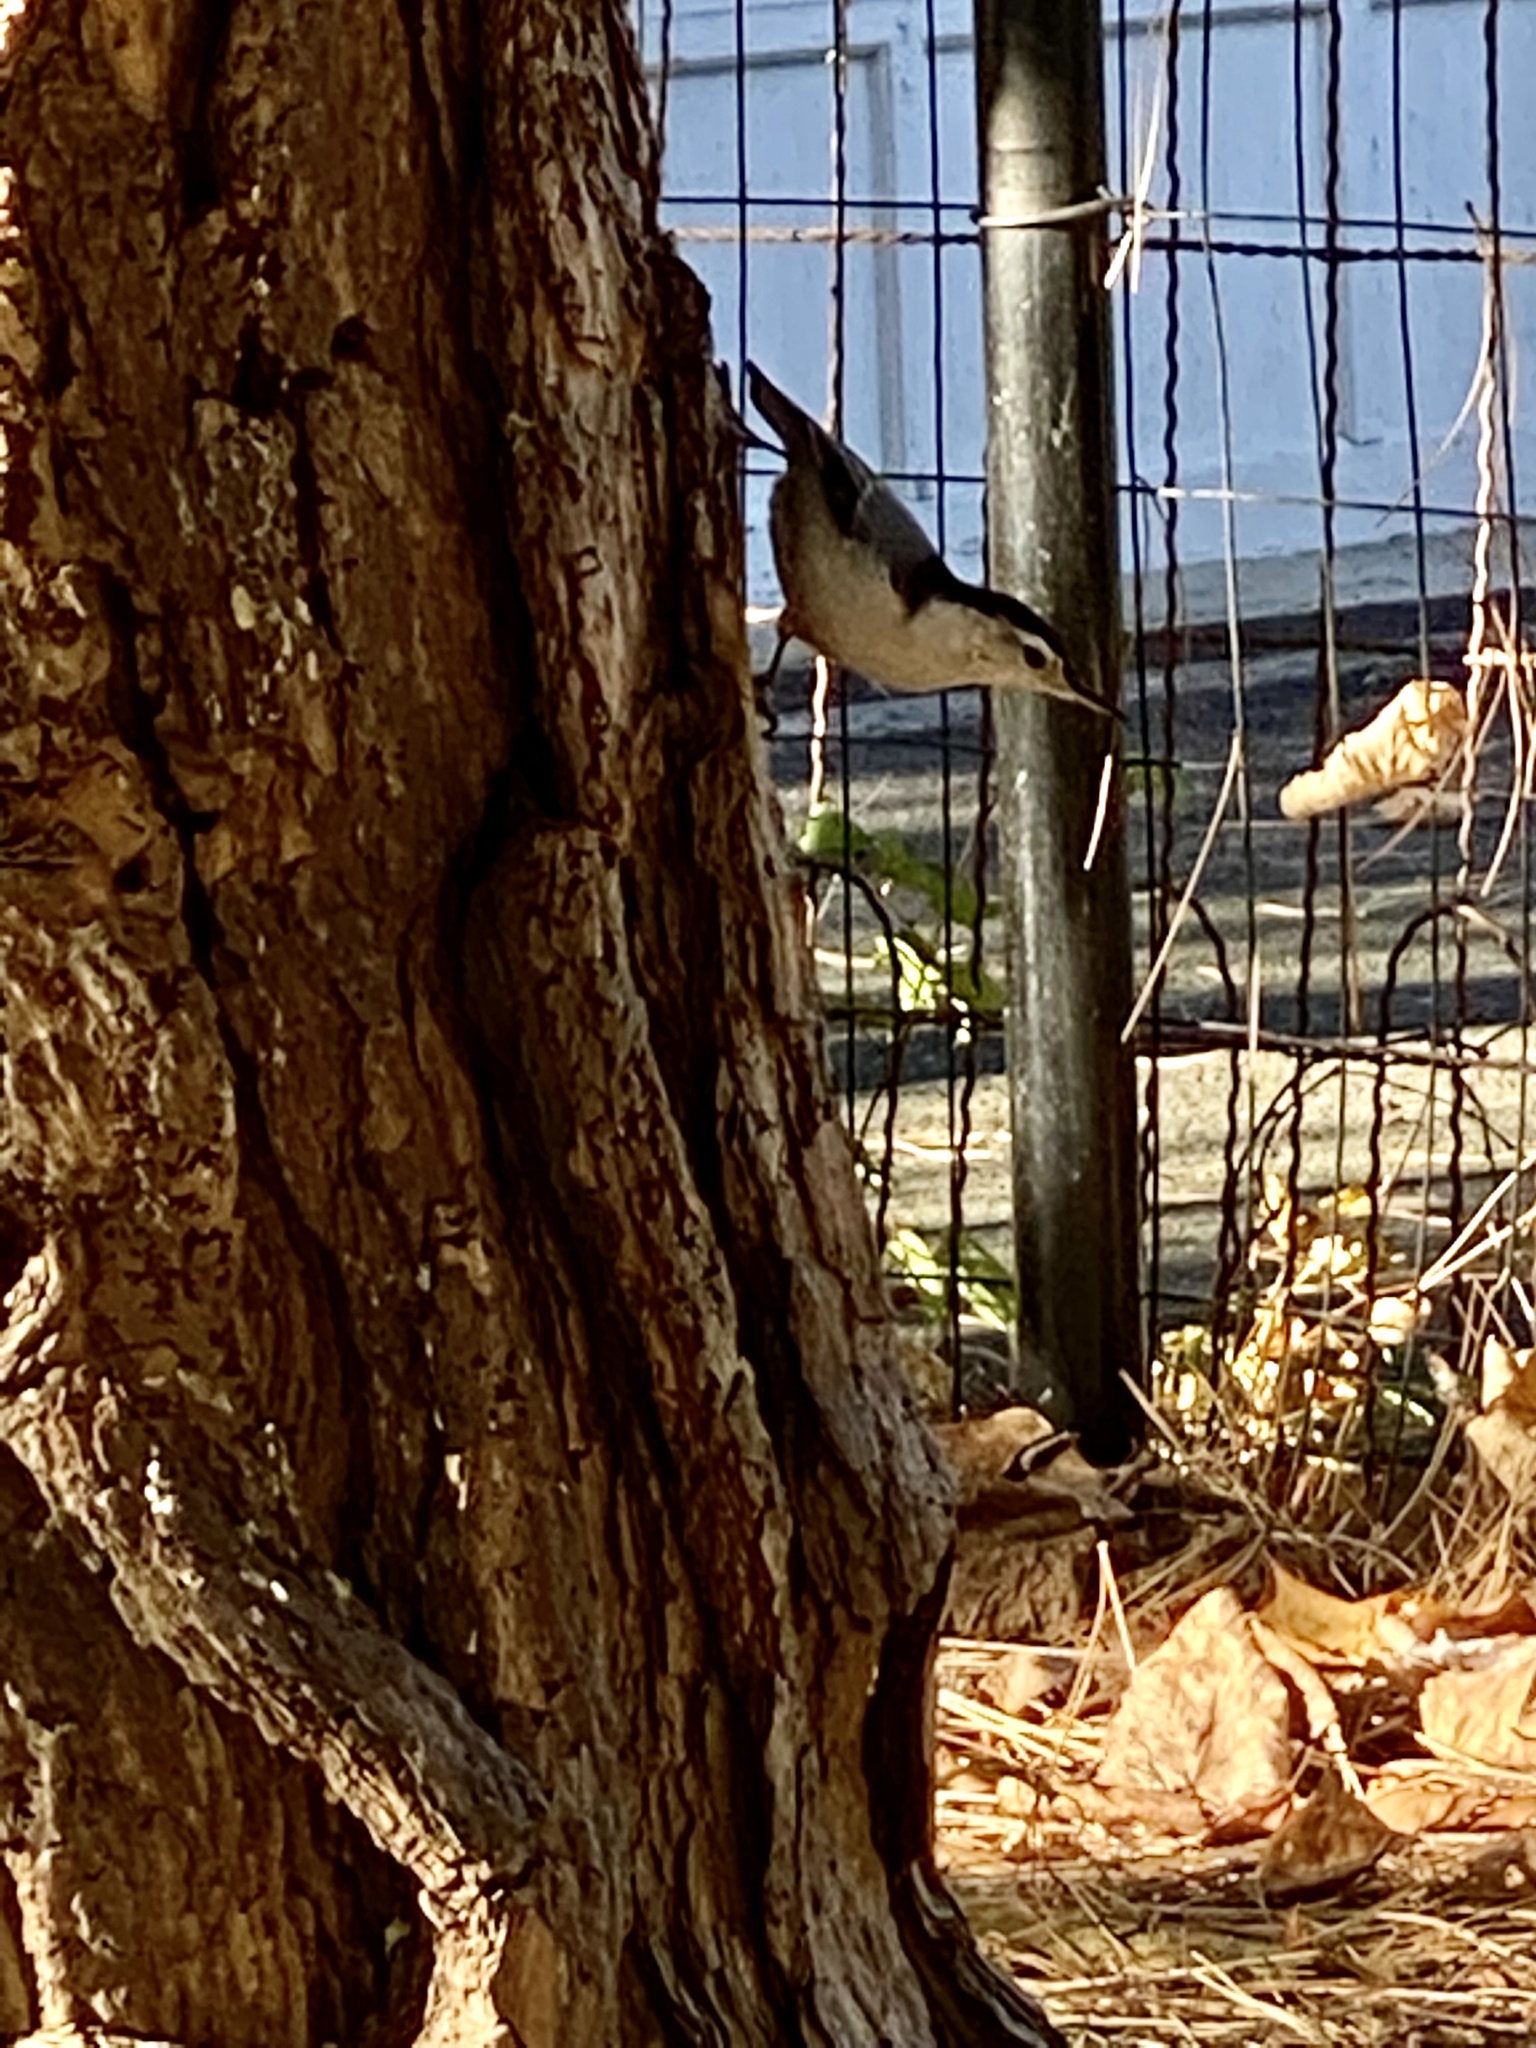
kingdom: Animalia
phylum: Chordata
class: Aves
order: Passeriformes
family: Sittidae
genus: Sitta
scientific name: Sitta carolinensis
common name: White-breasted nuthatch
